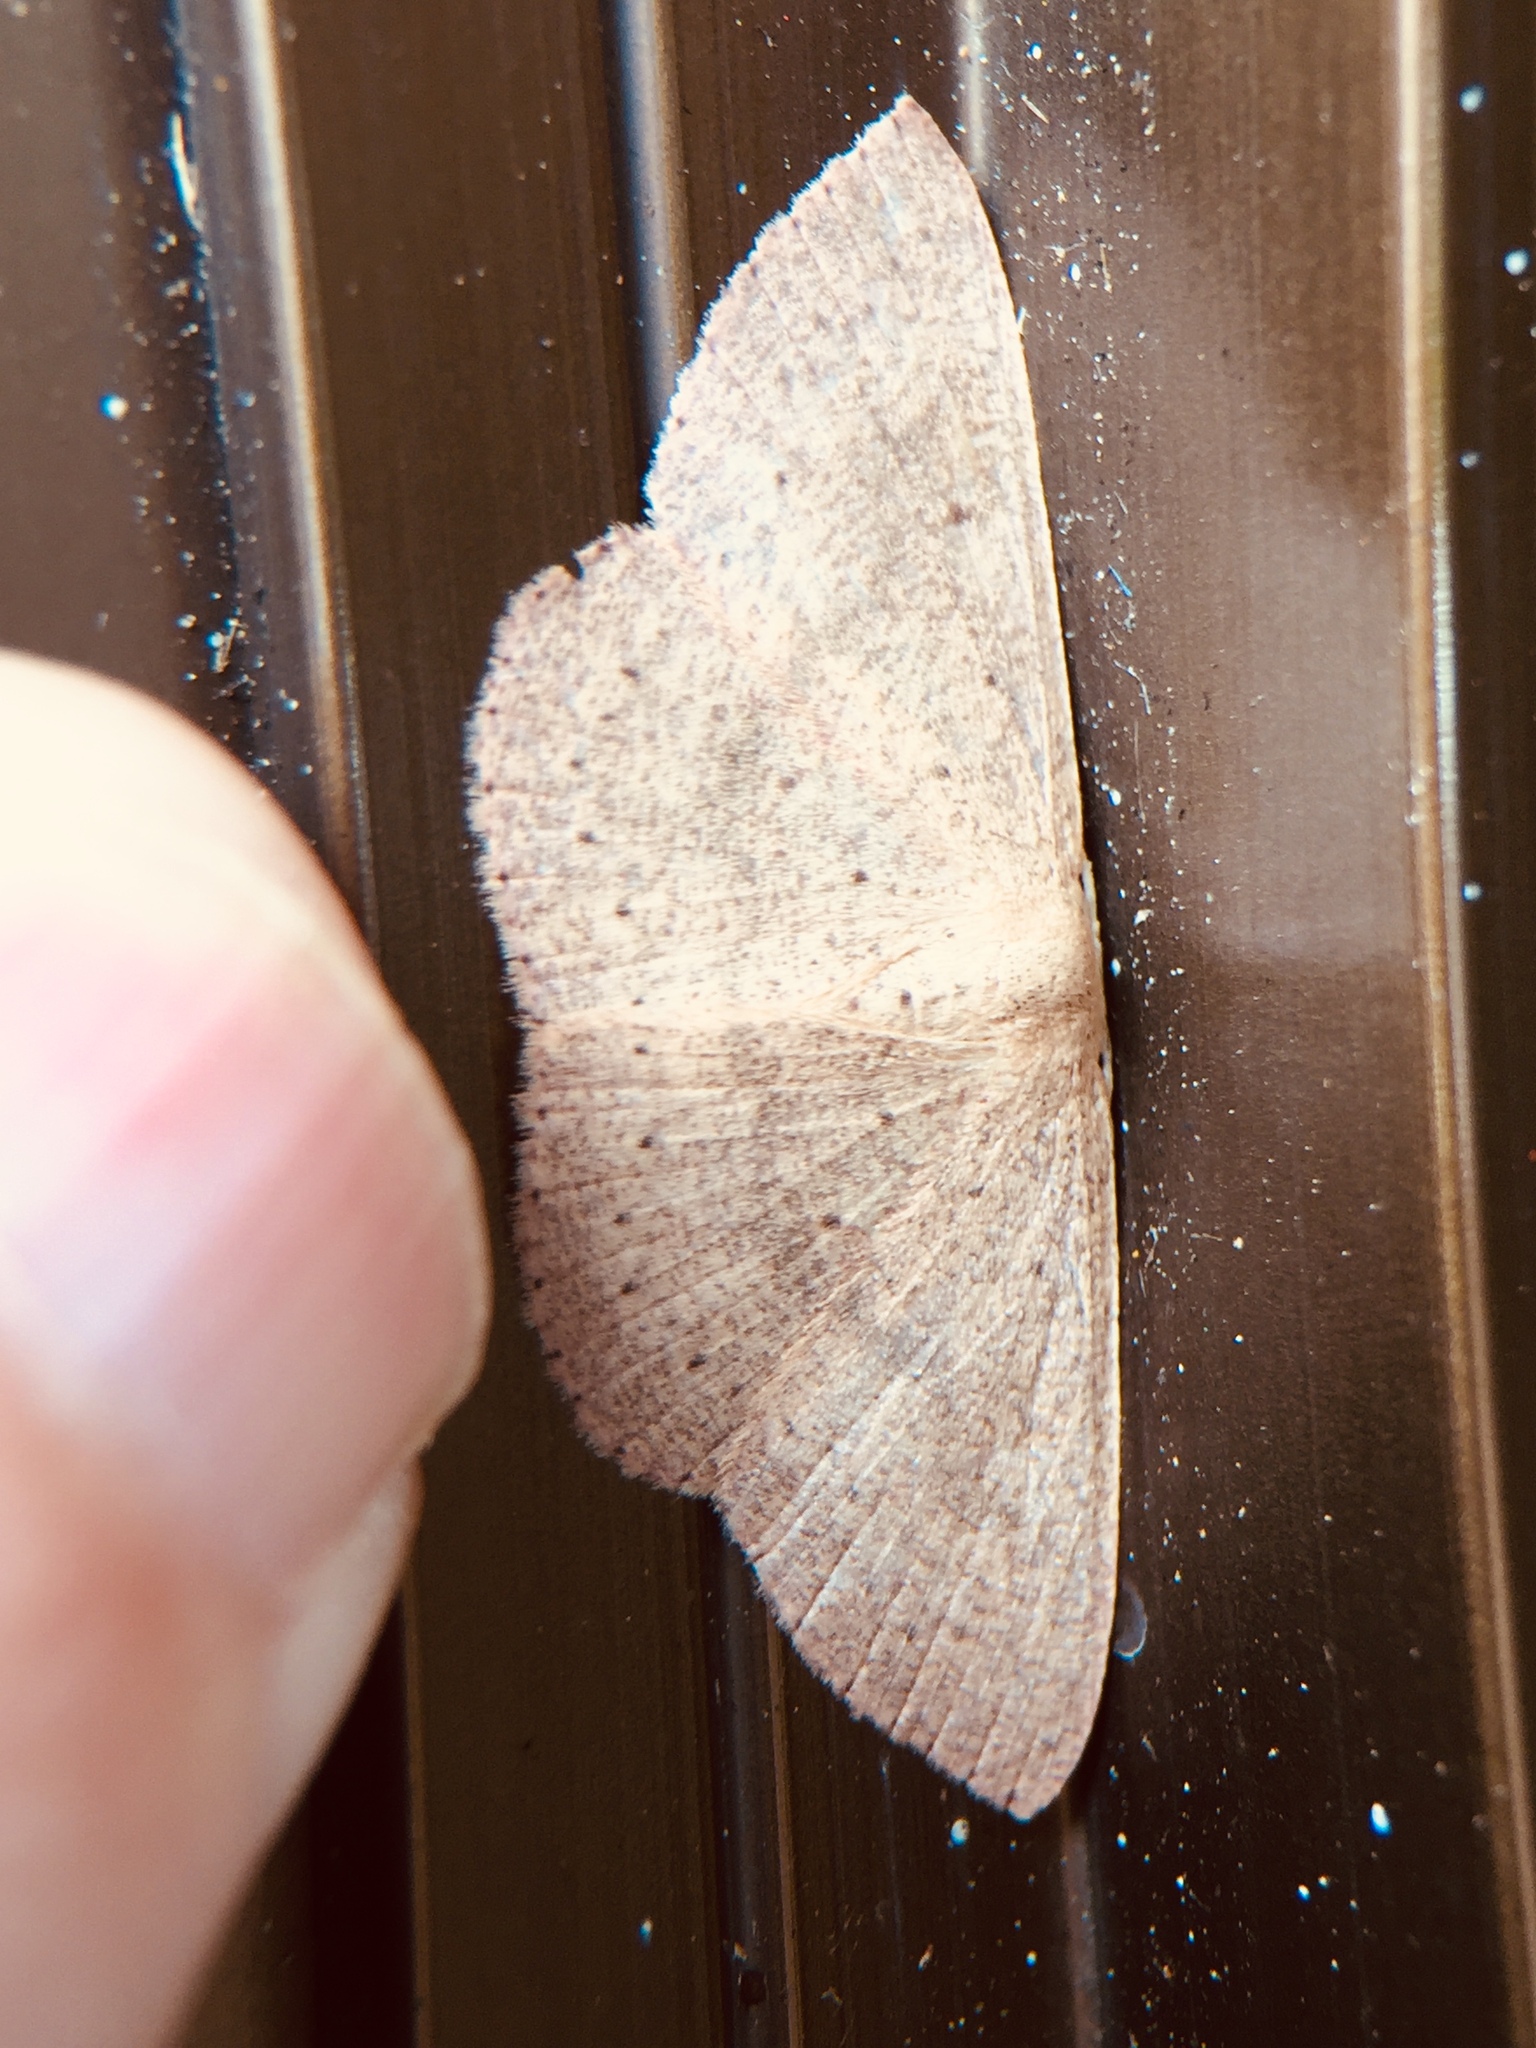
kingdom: Animalia
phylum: Arthropoda
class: Insecta
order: Lepidoptera
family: Geometridae
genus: Cyclophora
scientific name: Cyclophora obstataria
